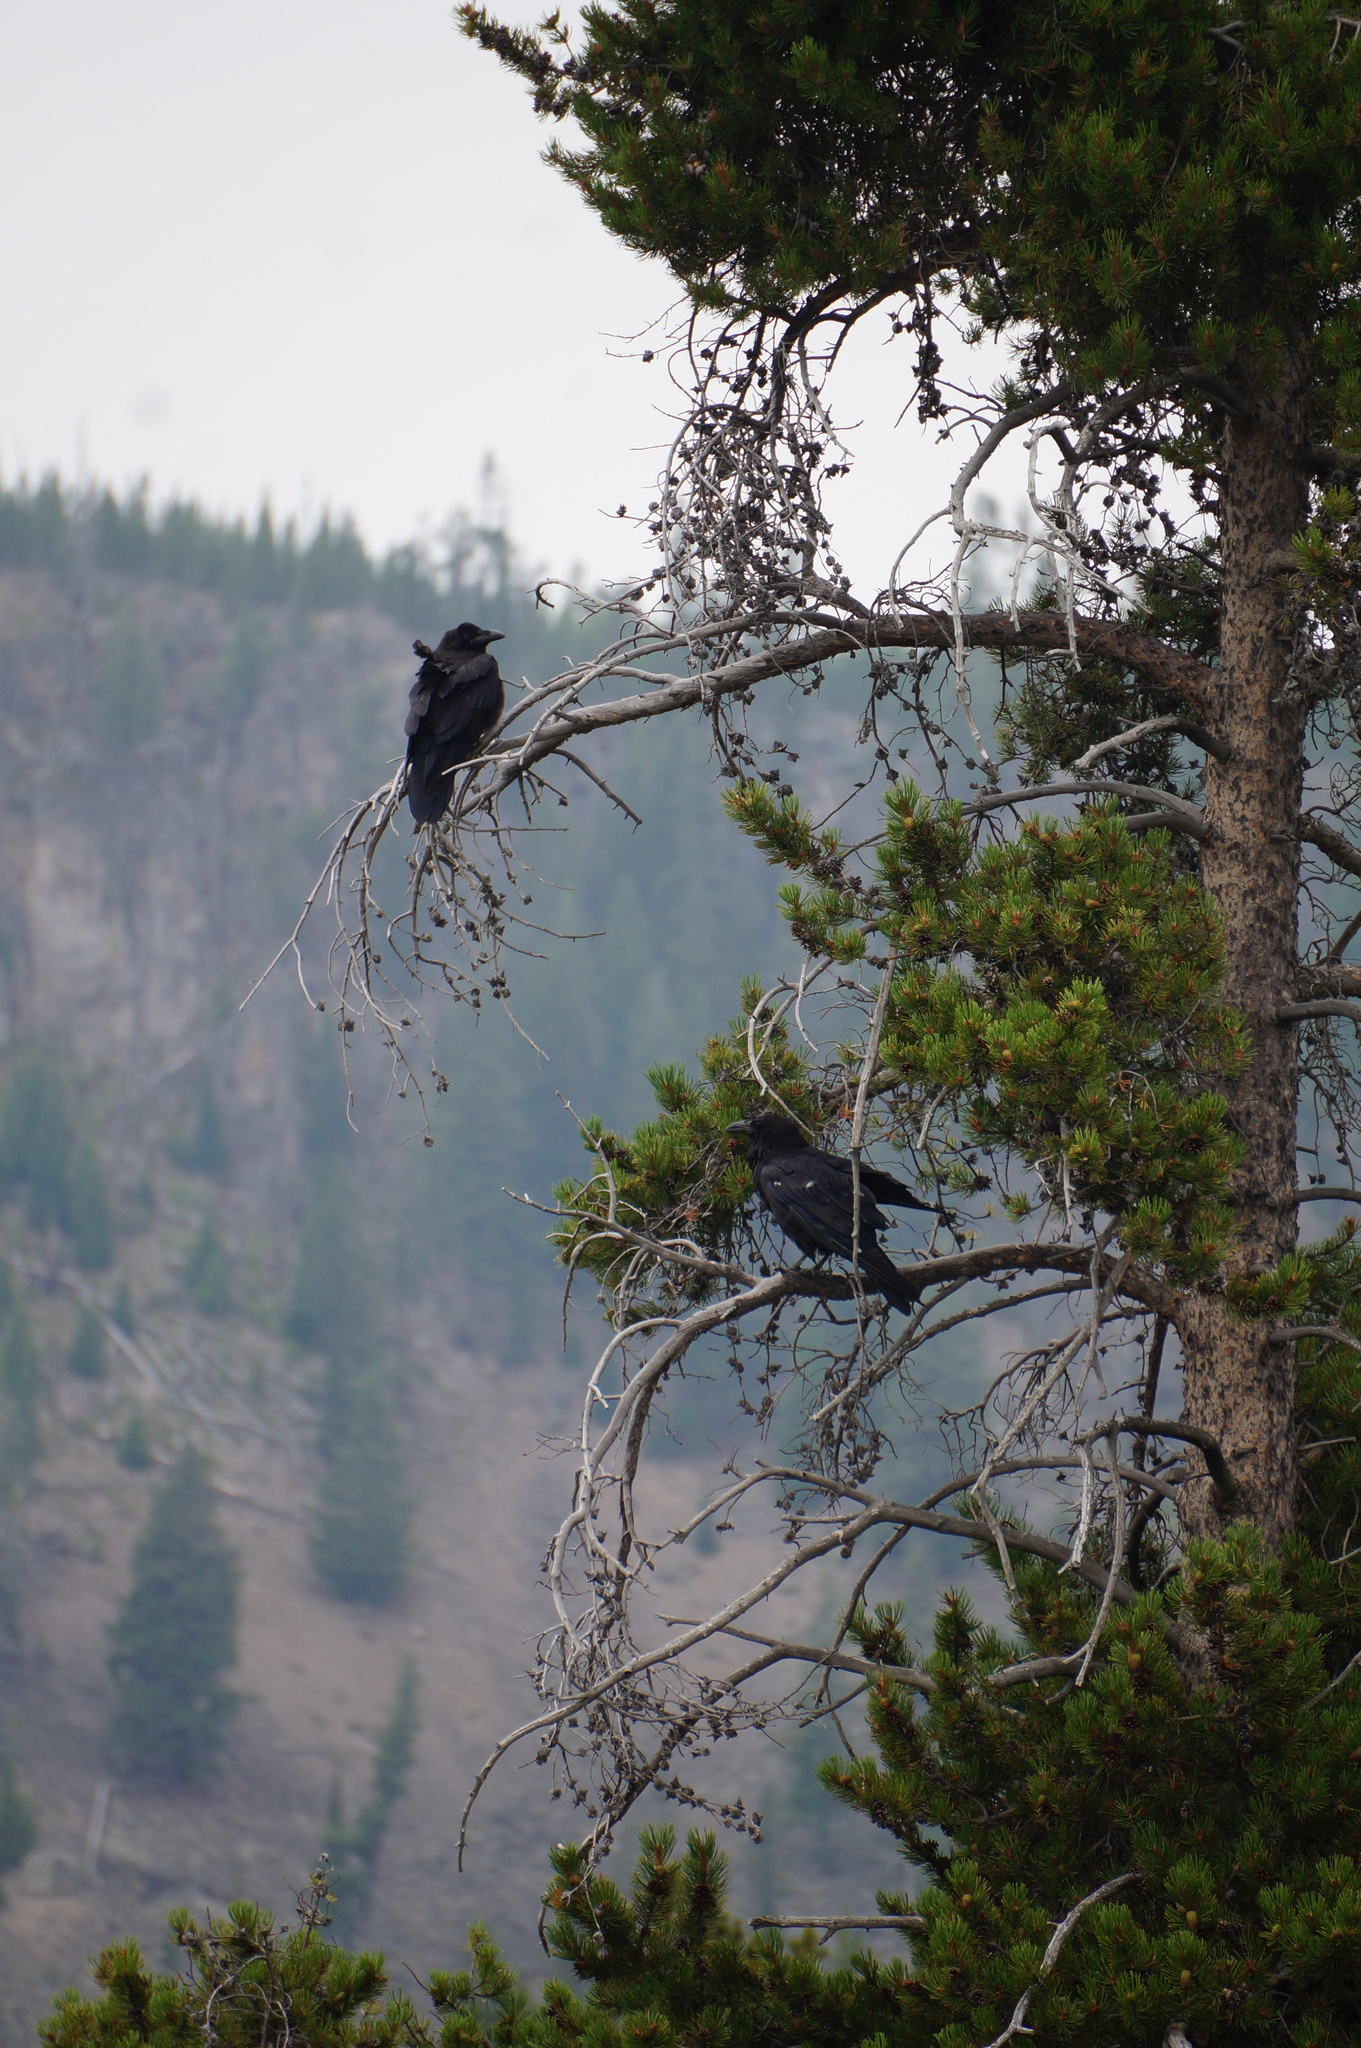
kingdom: Animalia
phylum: Chordata
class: Aves
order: Passeriformes
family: Corvidae
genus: Corvus
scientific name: Corvus corax
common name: Common raven
